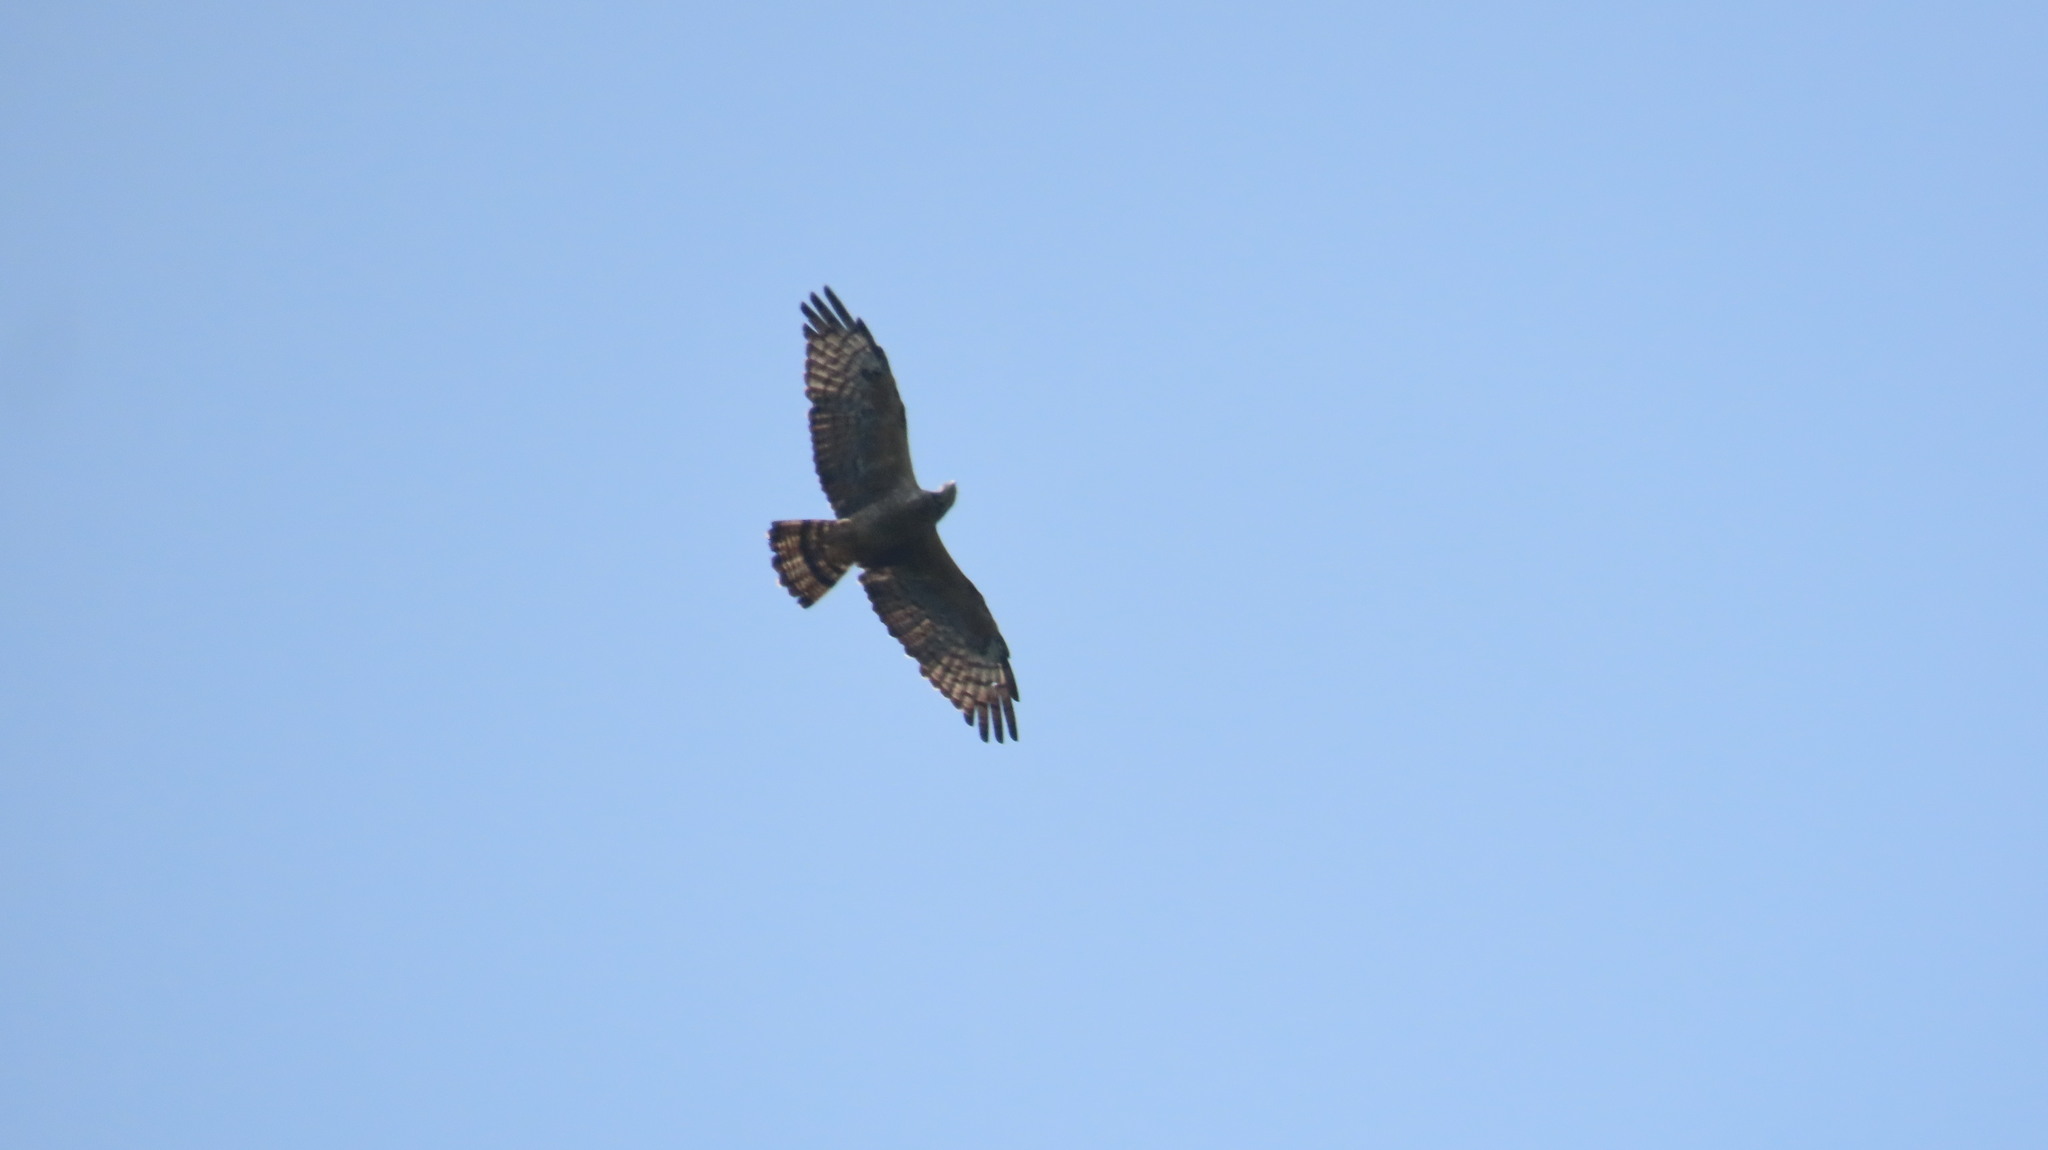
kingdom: Animalia
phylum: Chordata
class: Aves
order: Accipitriformes
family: Accipitridae
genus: Pernis
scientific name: Pernis ptilorhynchus
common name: Crested honey buzzard
